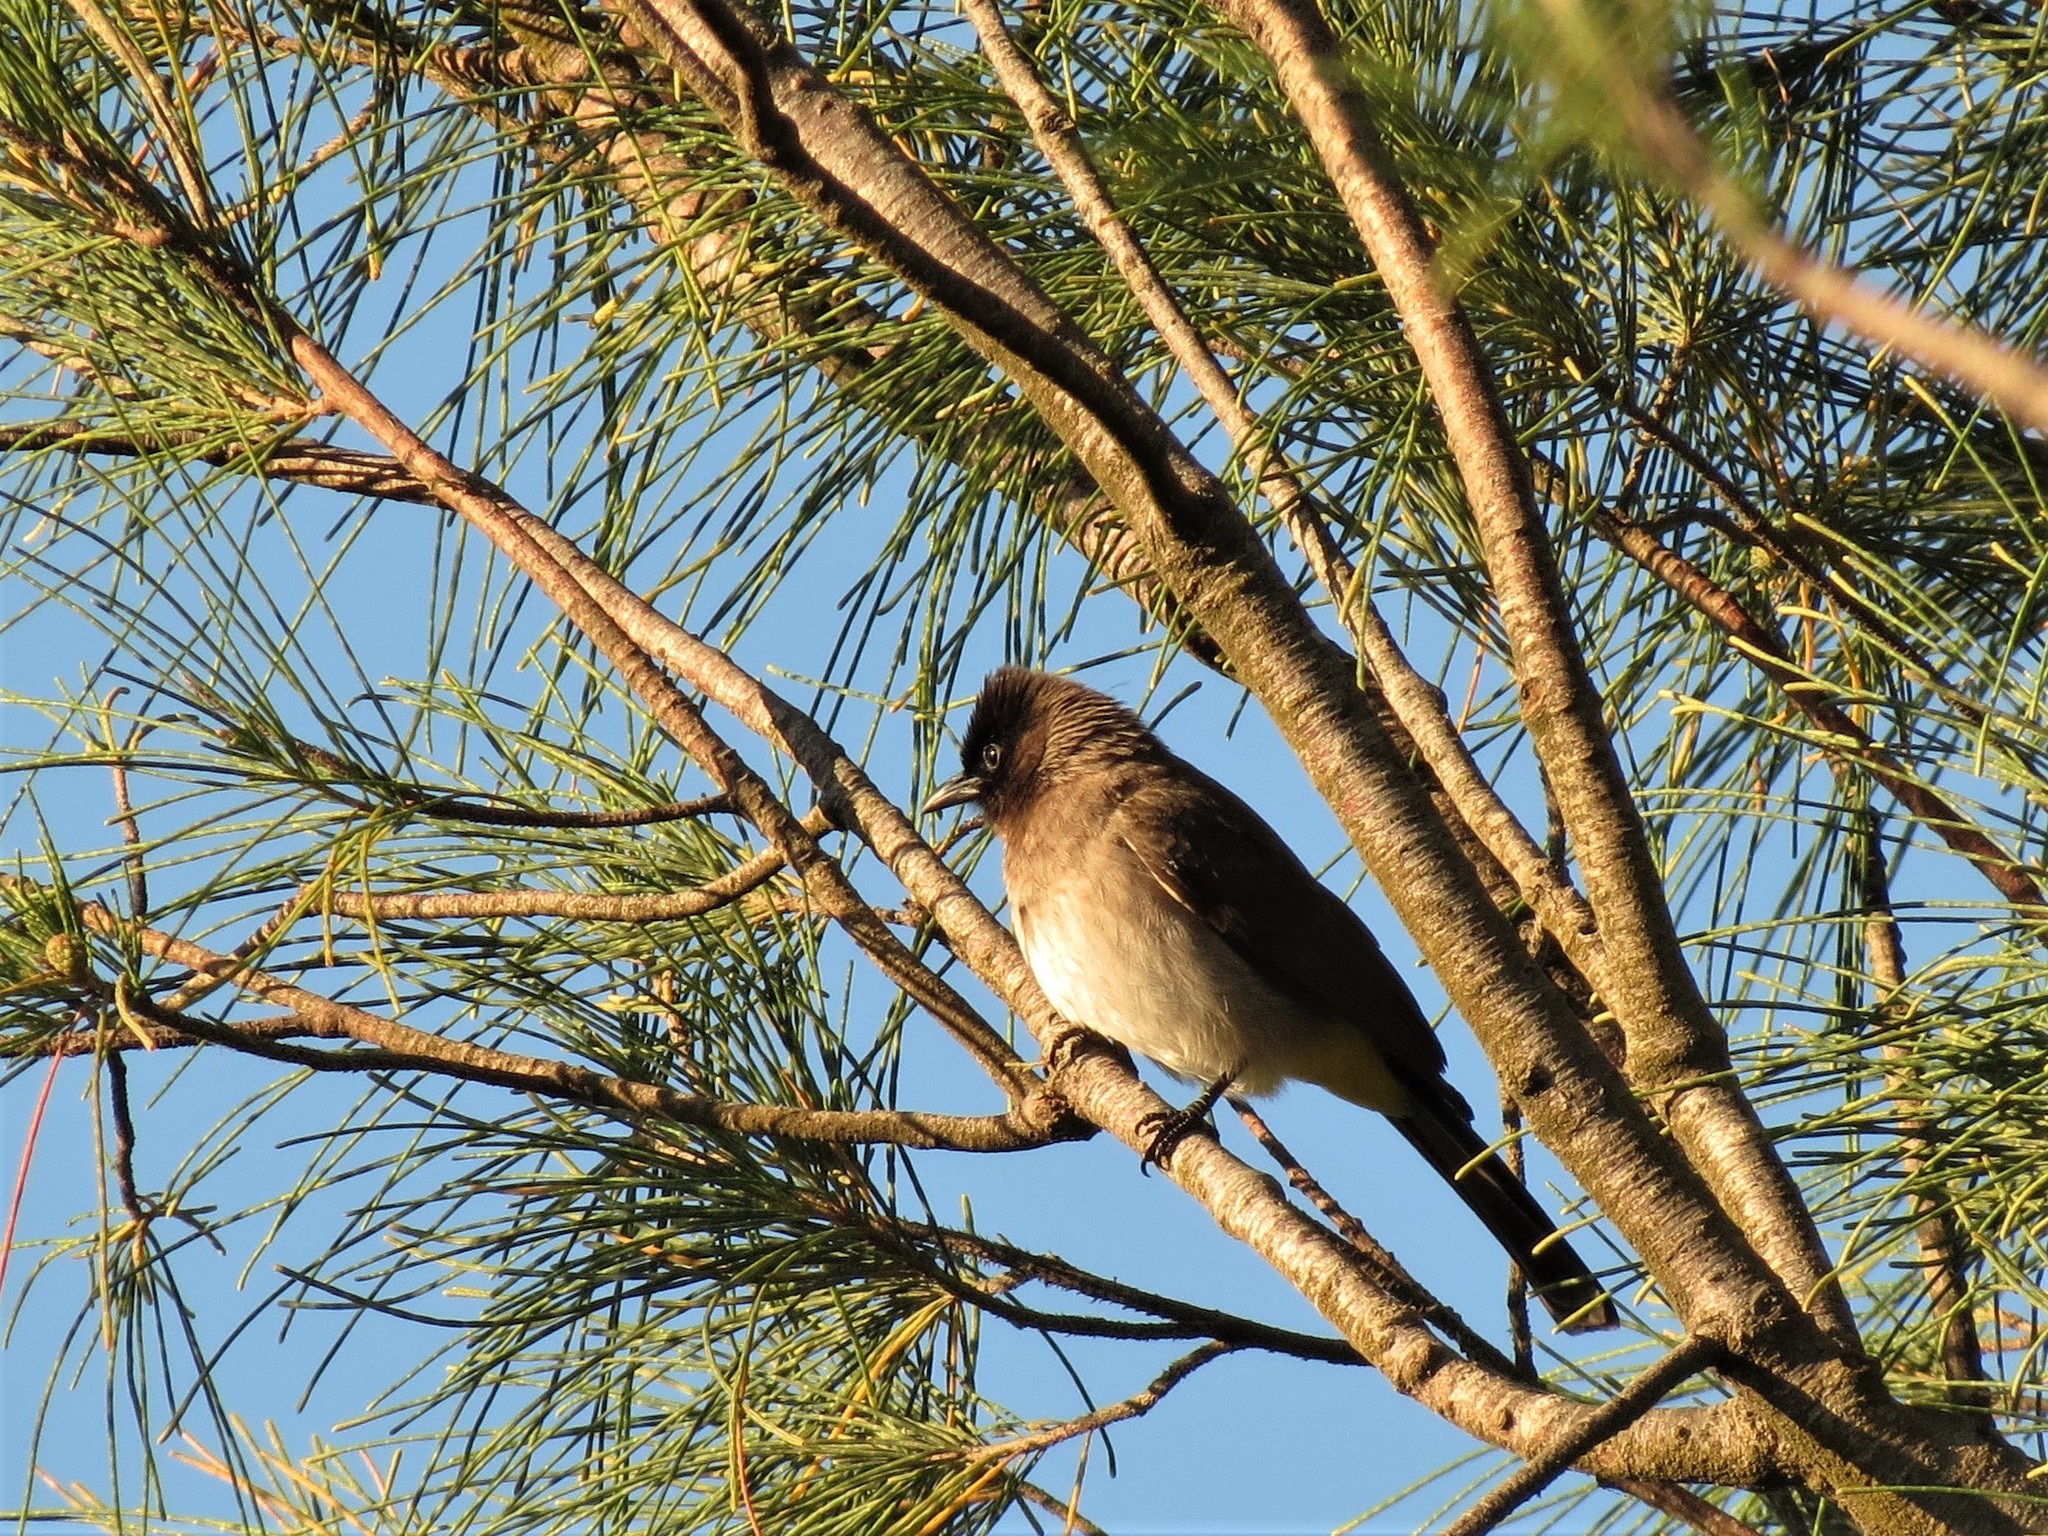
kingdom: Animalia
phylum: Chordata
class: Aves
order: Passeriformes
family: Pycnonotidae
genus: Pycnonotus
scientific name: Pycnonotus barbatus
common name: Common bulbul
